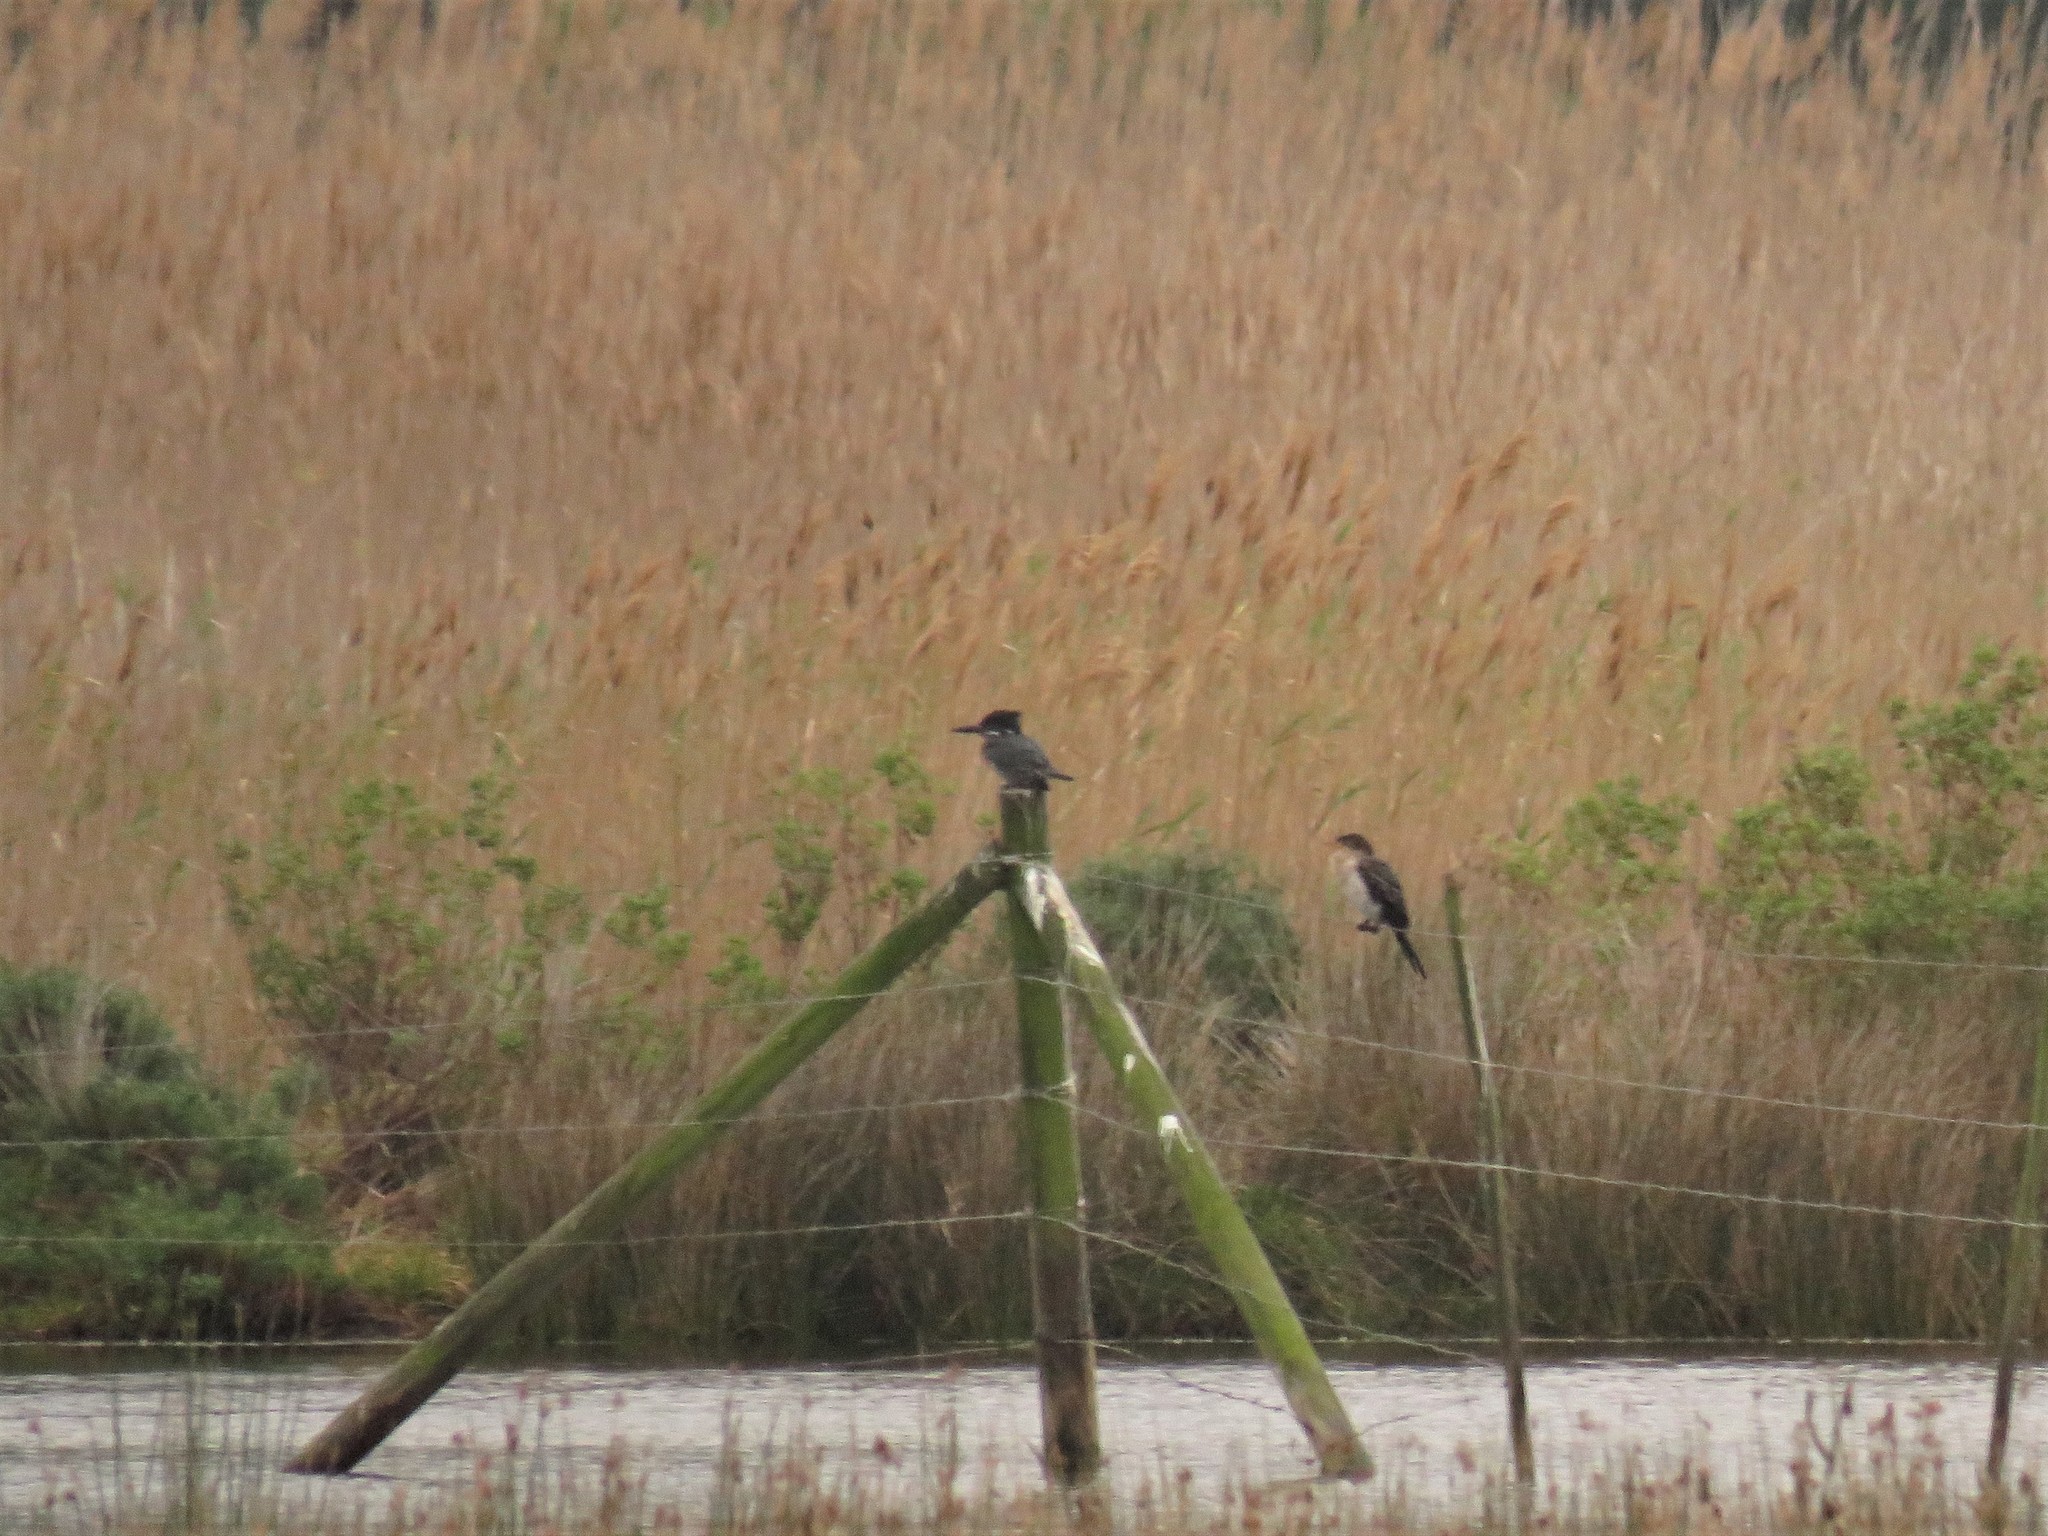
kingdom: Animalia
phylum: Chordata
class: Aves
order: Coraciiformes
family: Alcedinidae
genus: Megaceryle
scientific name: Megaceryle maxima
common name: Giant kingfisher
